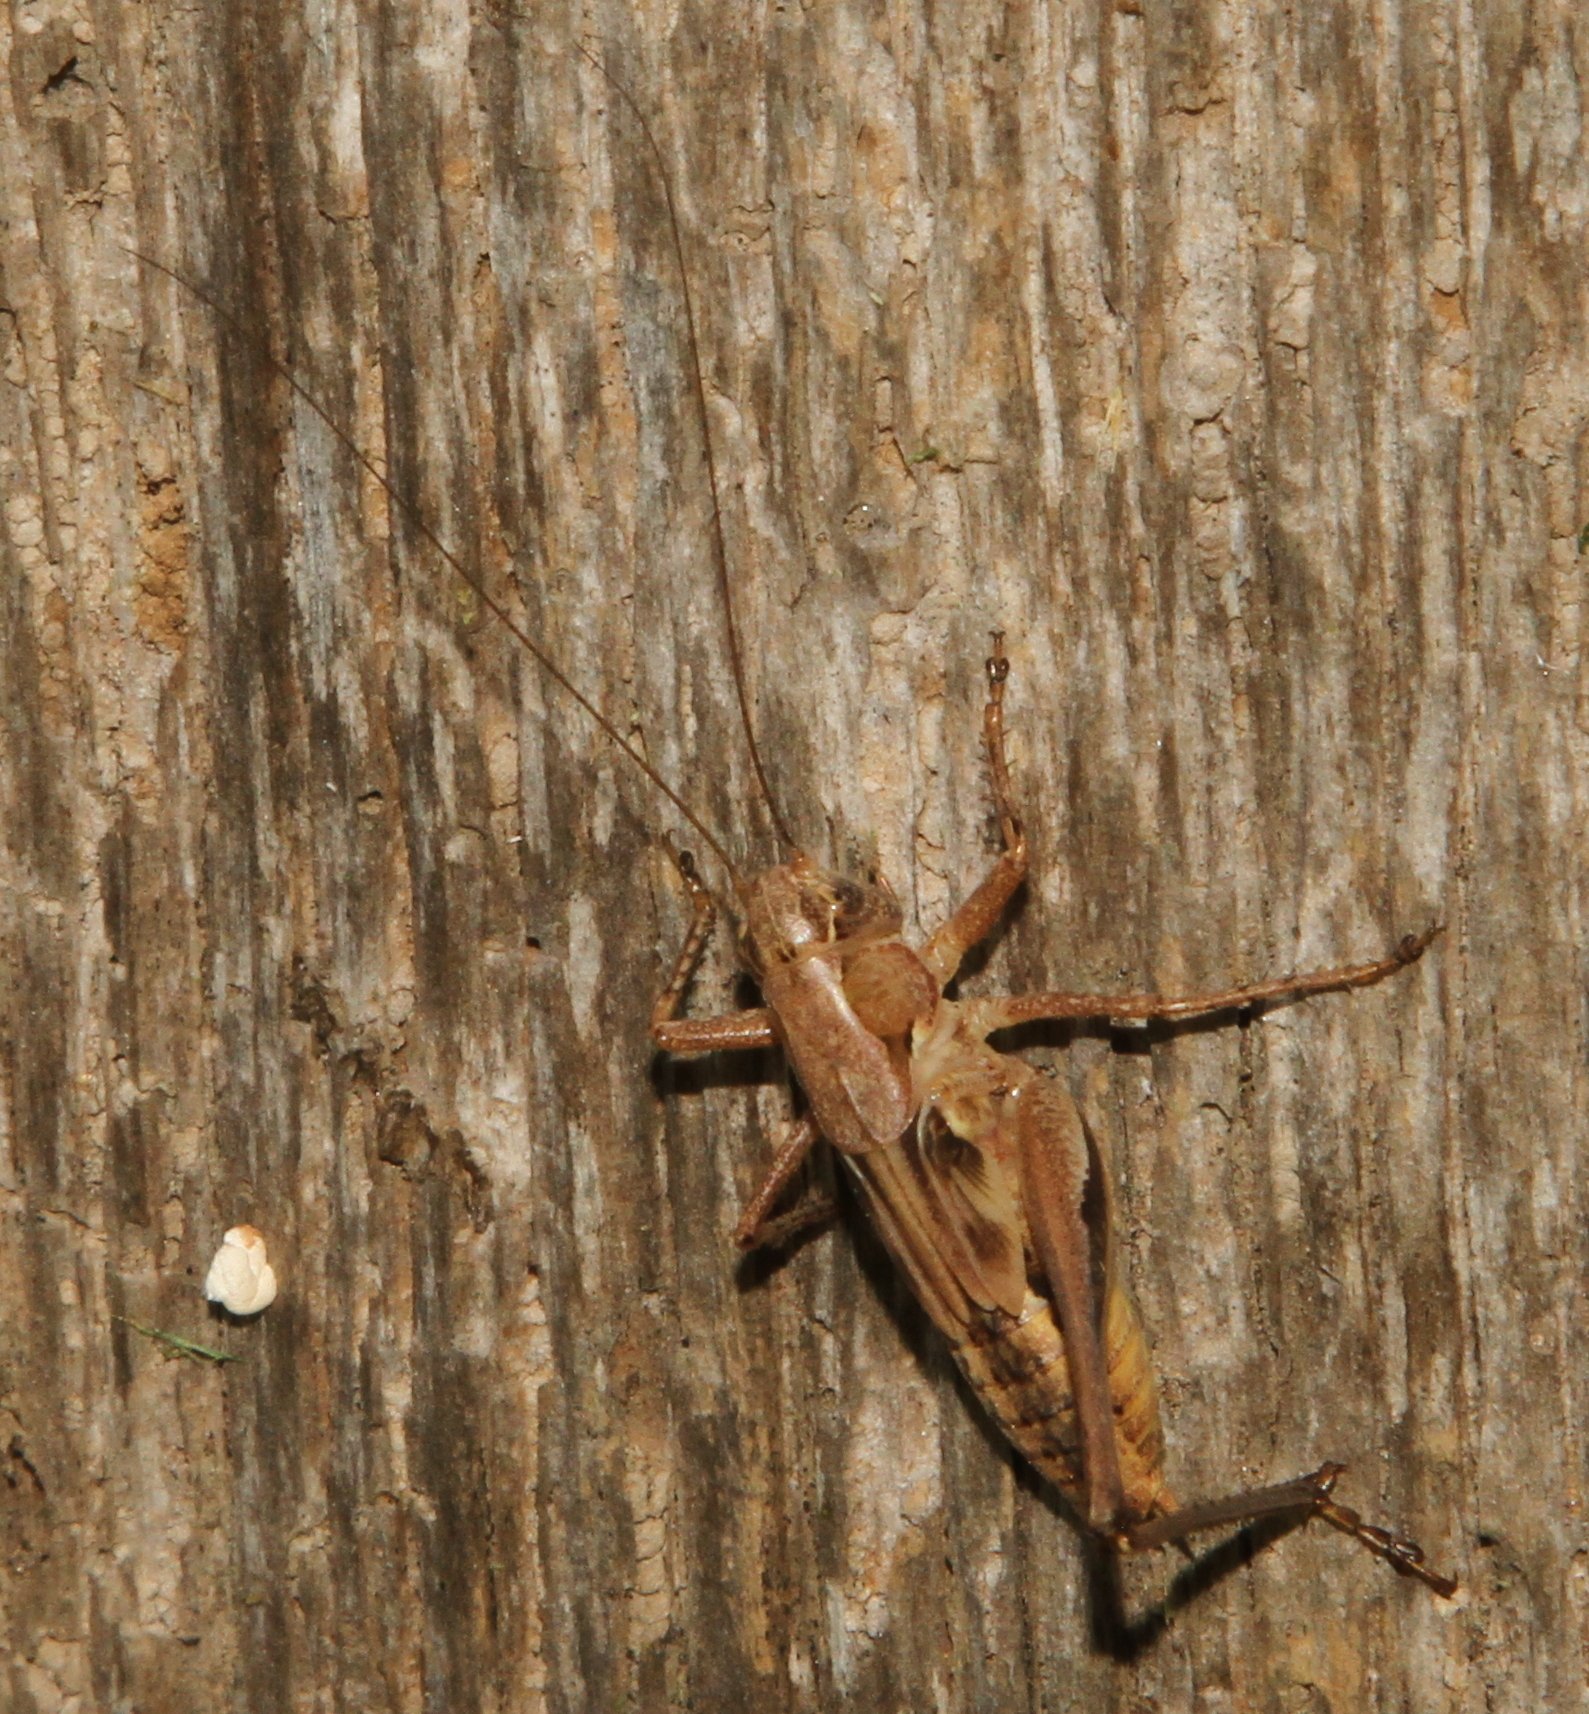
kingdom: Animalia
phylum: Arthropoda
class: Insecta
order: Orthoptera
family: Tettigoniidae
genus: Platycleis
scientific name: Platycleis albopunctata
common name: Grey bush-cricket
